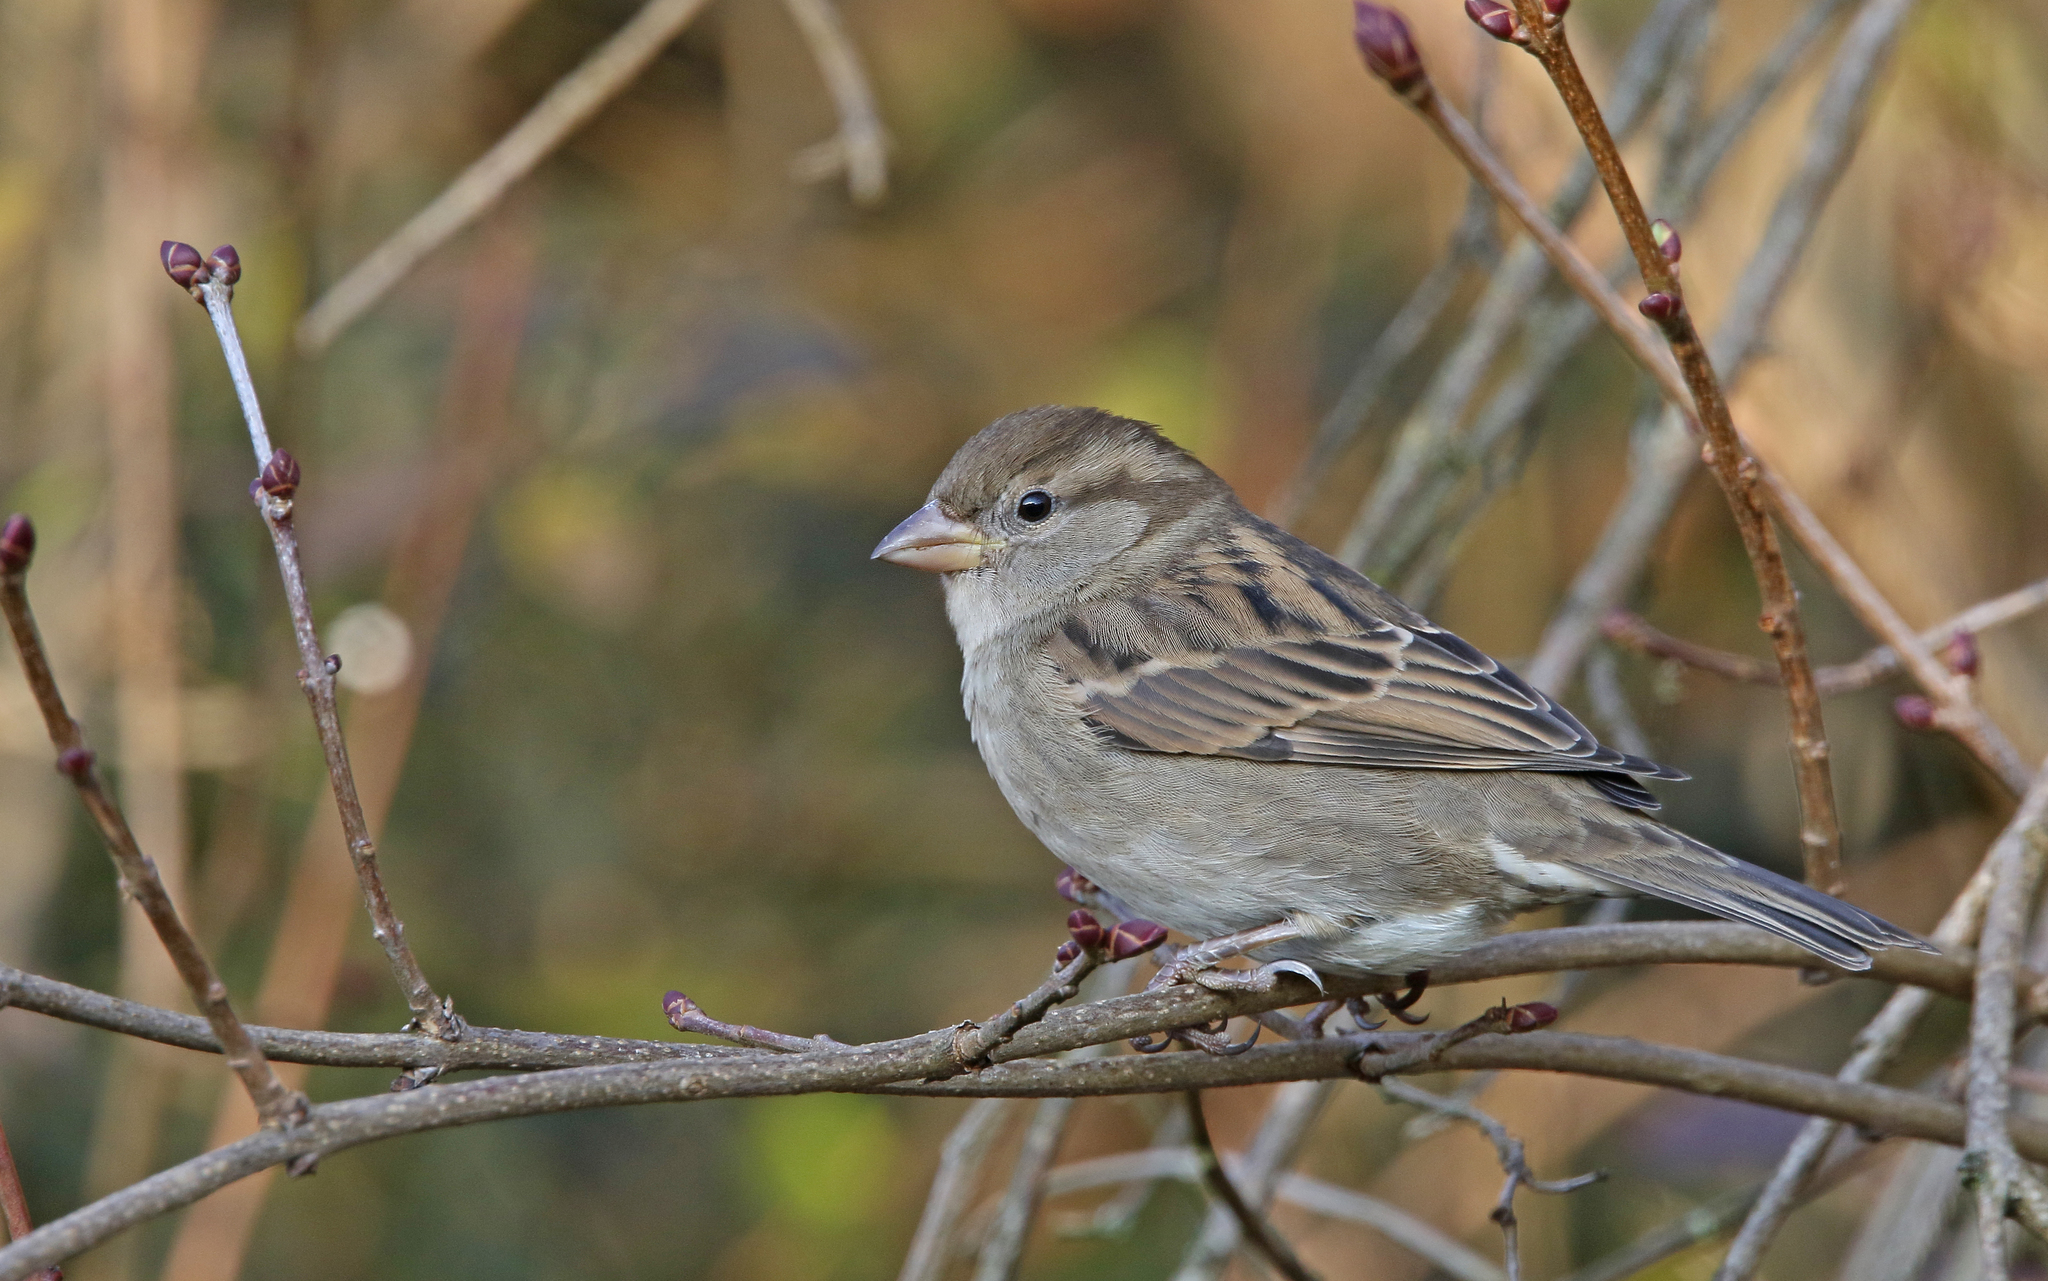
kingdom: Animalia
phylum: Chordata
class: Aves
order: Passeriformes
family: Passeridae
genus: Passer
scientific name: Passer domesticus
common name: House sparrow
